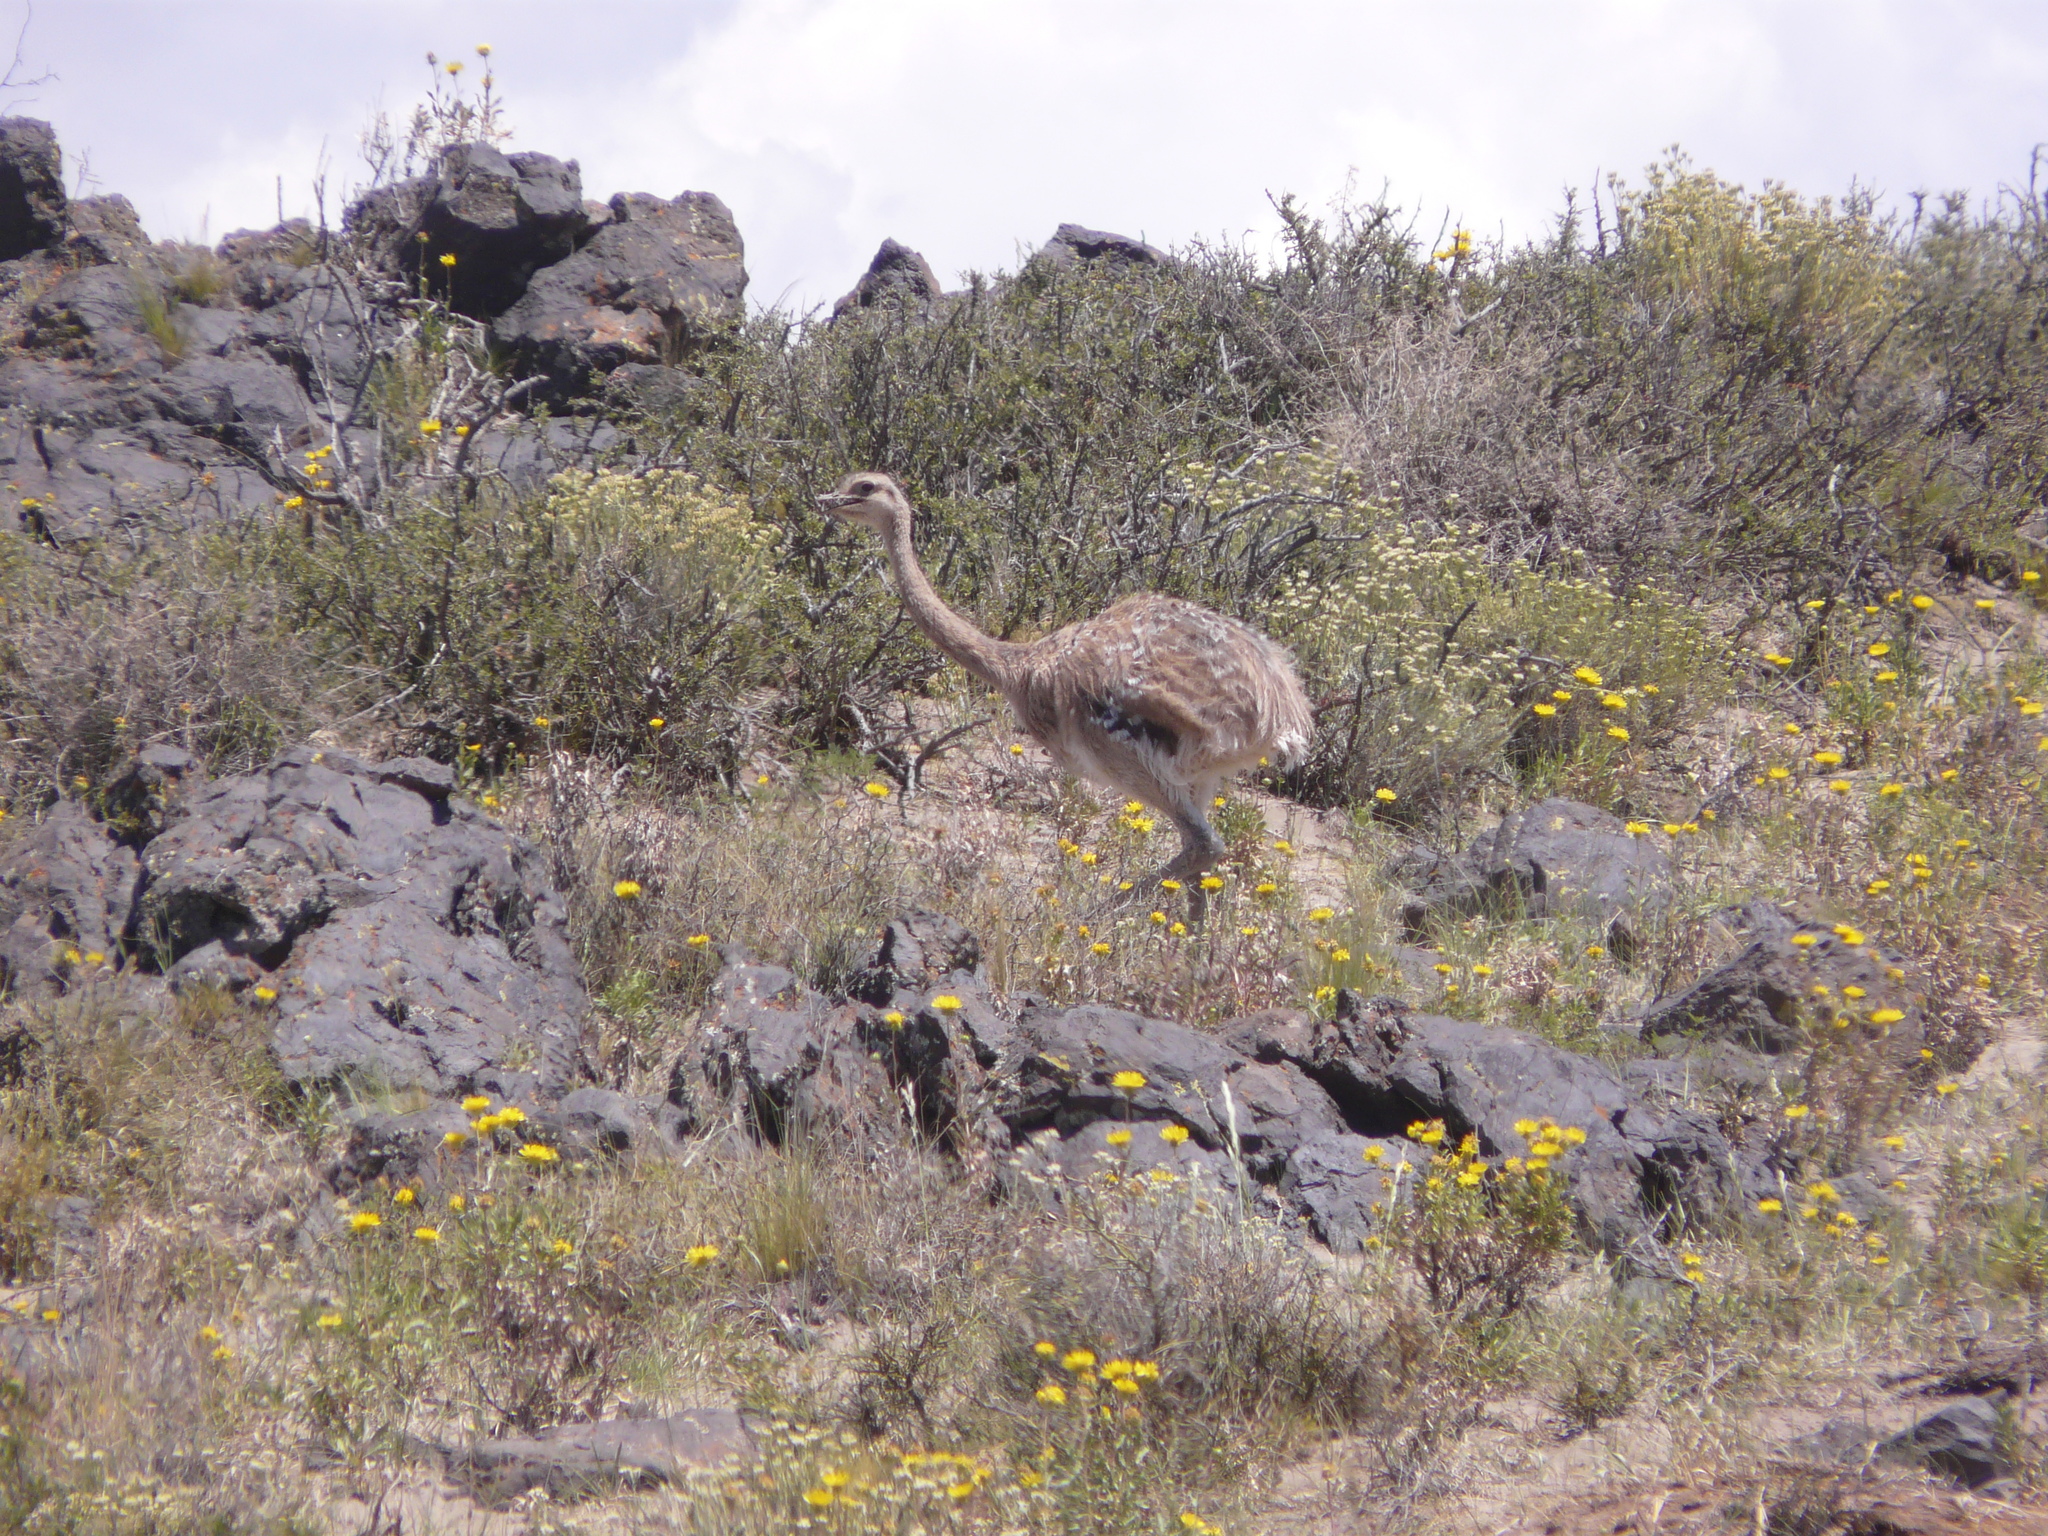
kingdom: Animalia
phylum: Chordata
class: Aves
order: Rheiformes
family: Rheidae
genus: Rhea
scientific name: Rhea pennata
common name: Lesser rhea
